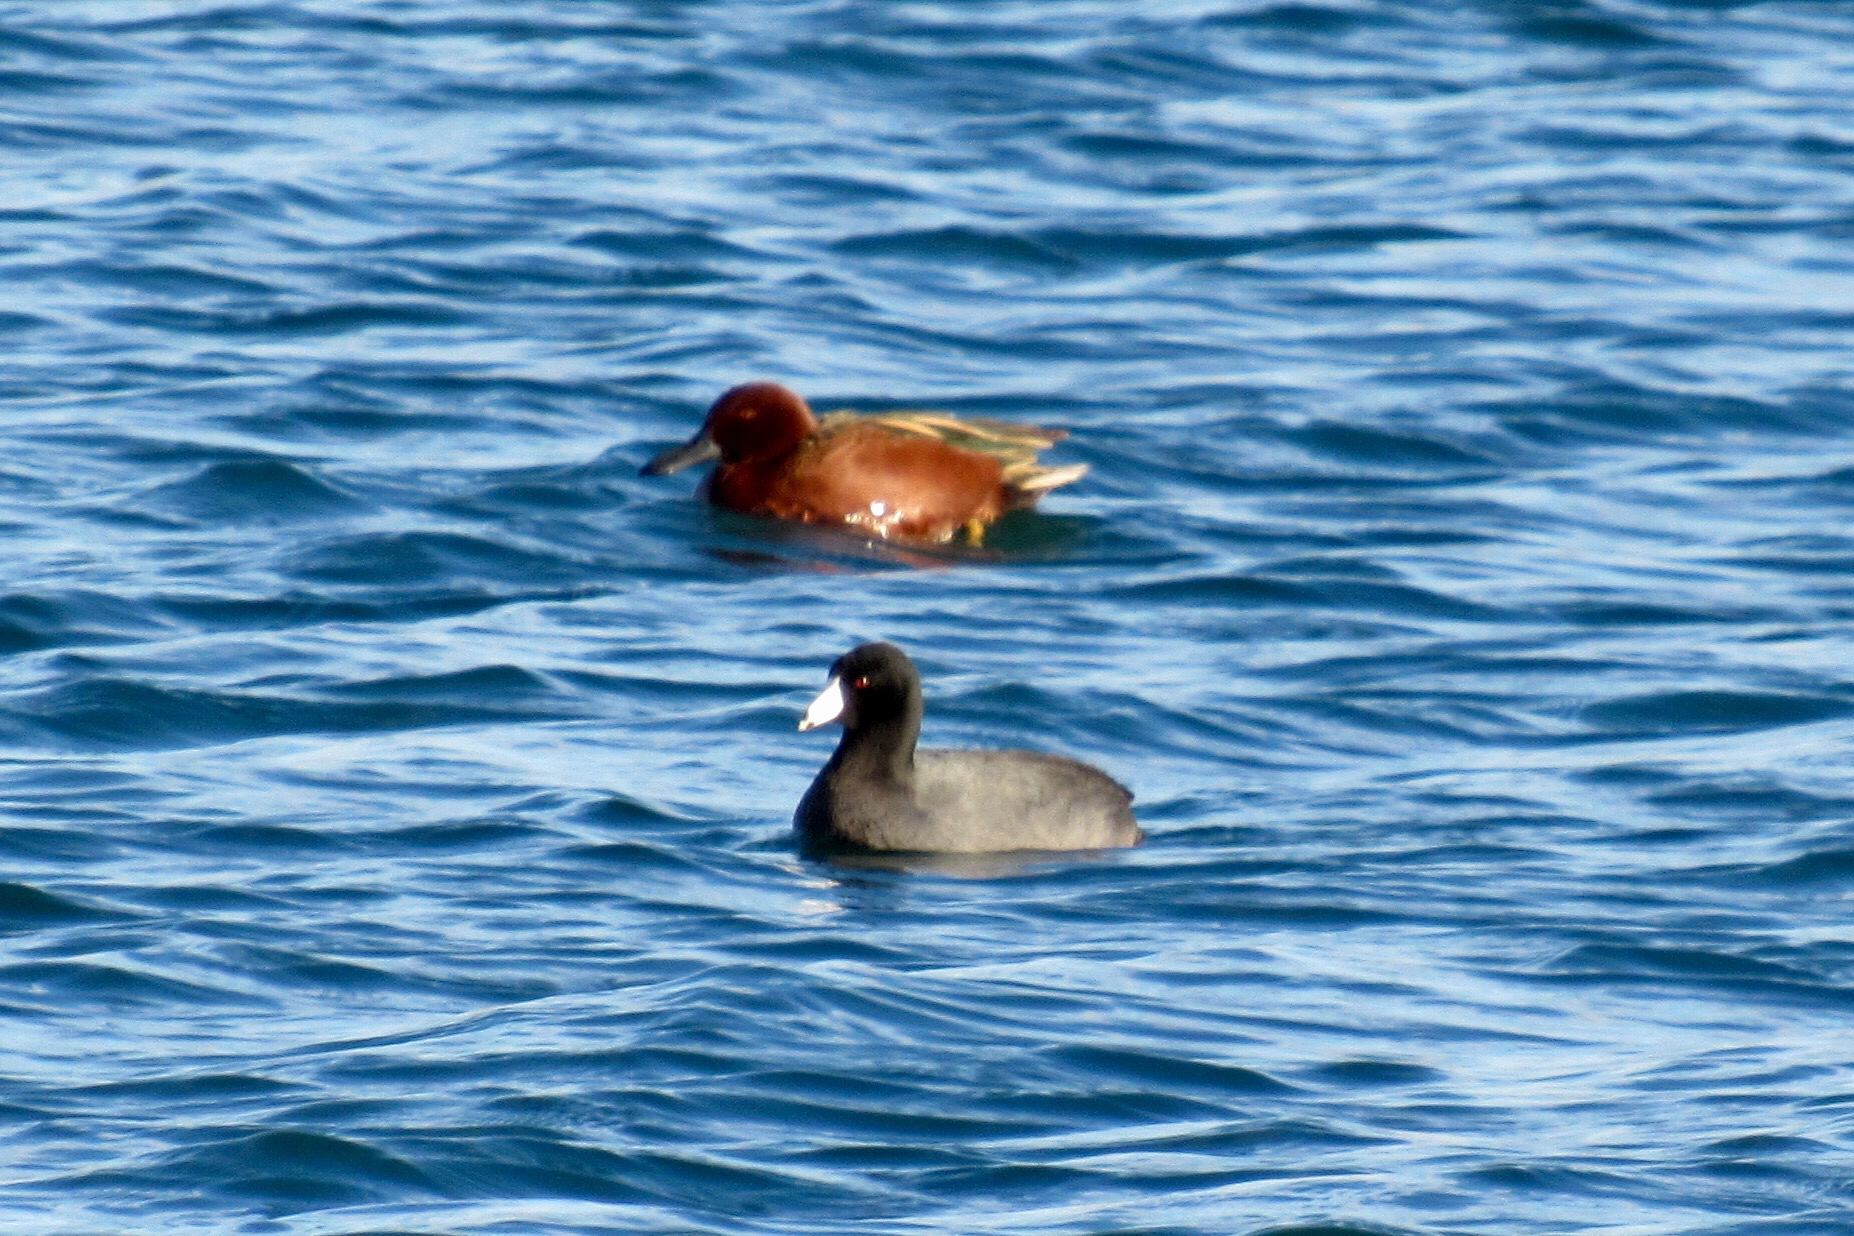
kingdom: Animalia
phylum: Chordata
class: Aves
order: Anseriformes
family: Anatidae
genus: Spatula
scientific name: Spatula cyanoptera
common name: Cinnamon teal
